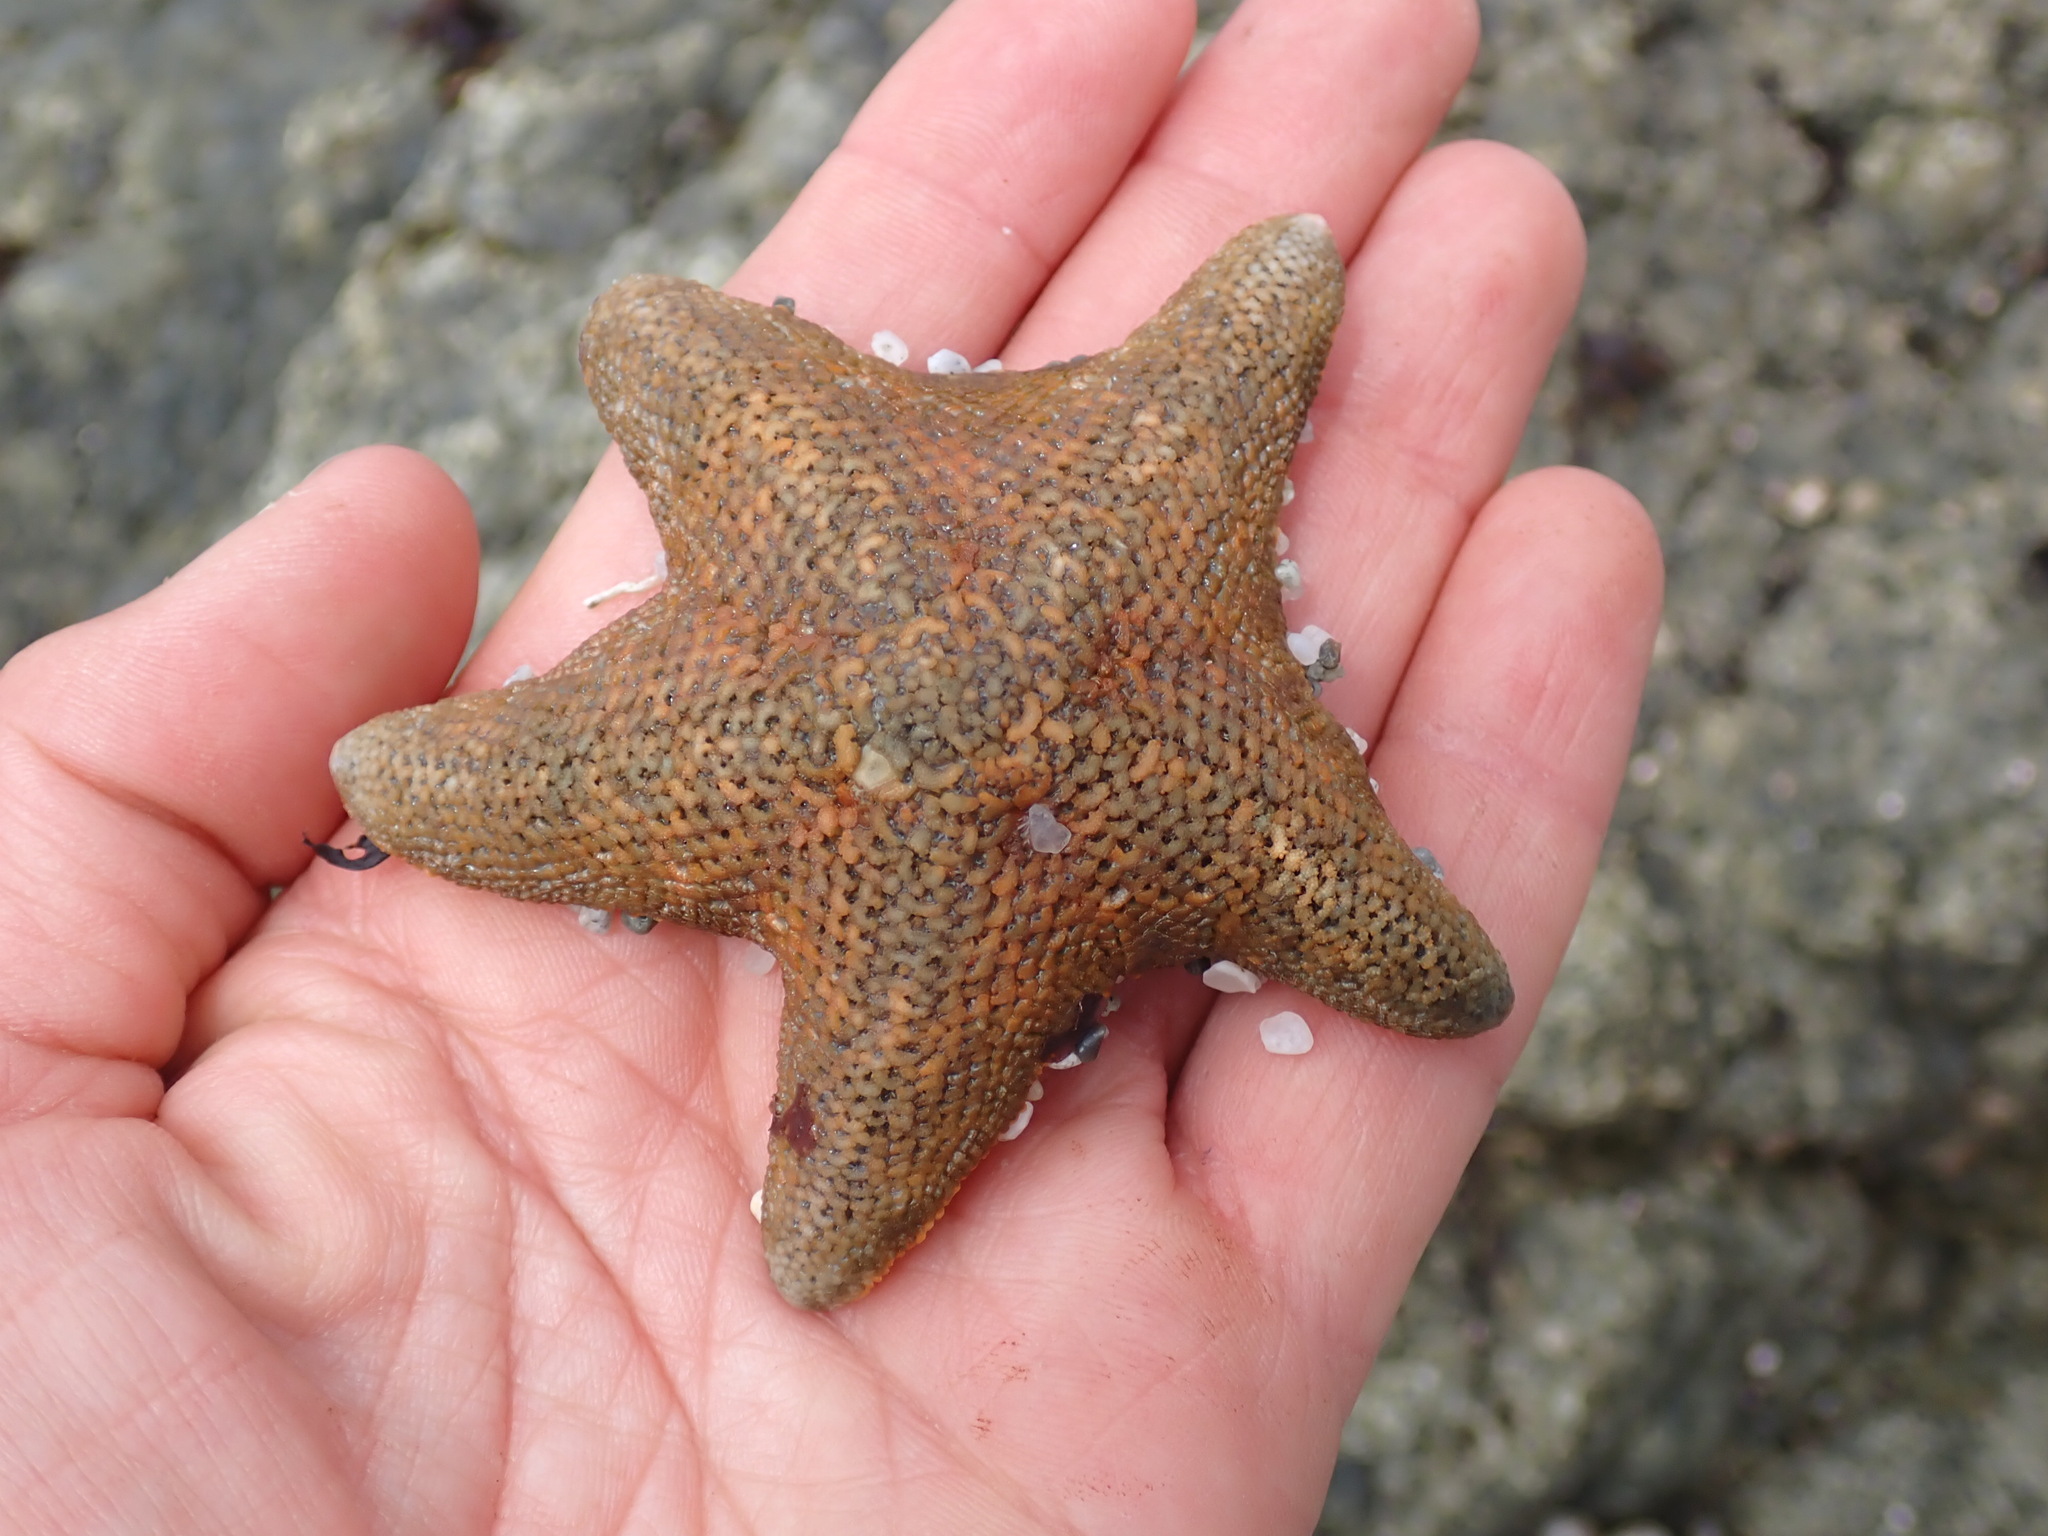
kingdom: Animalia
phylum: Echinodermata
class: Asteroidea
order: Valvatida
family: Asterinidae
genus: Patiria
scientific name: Patiria miniata
